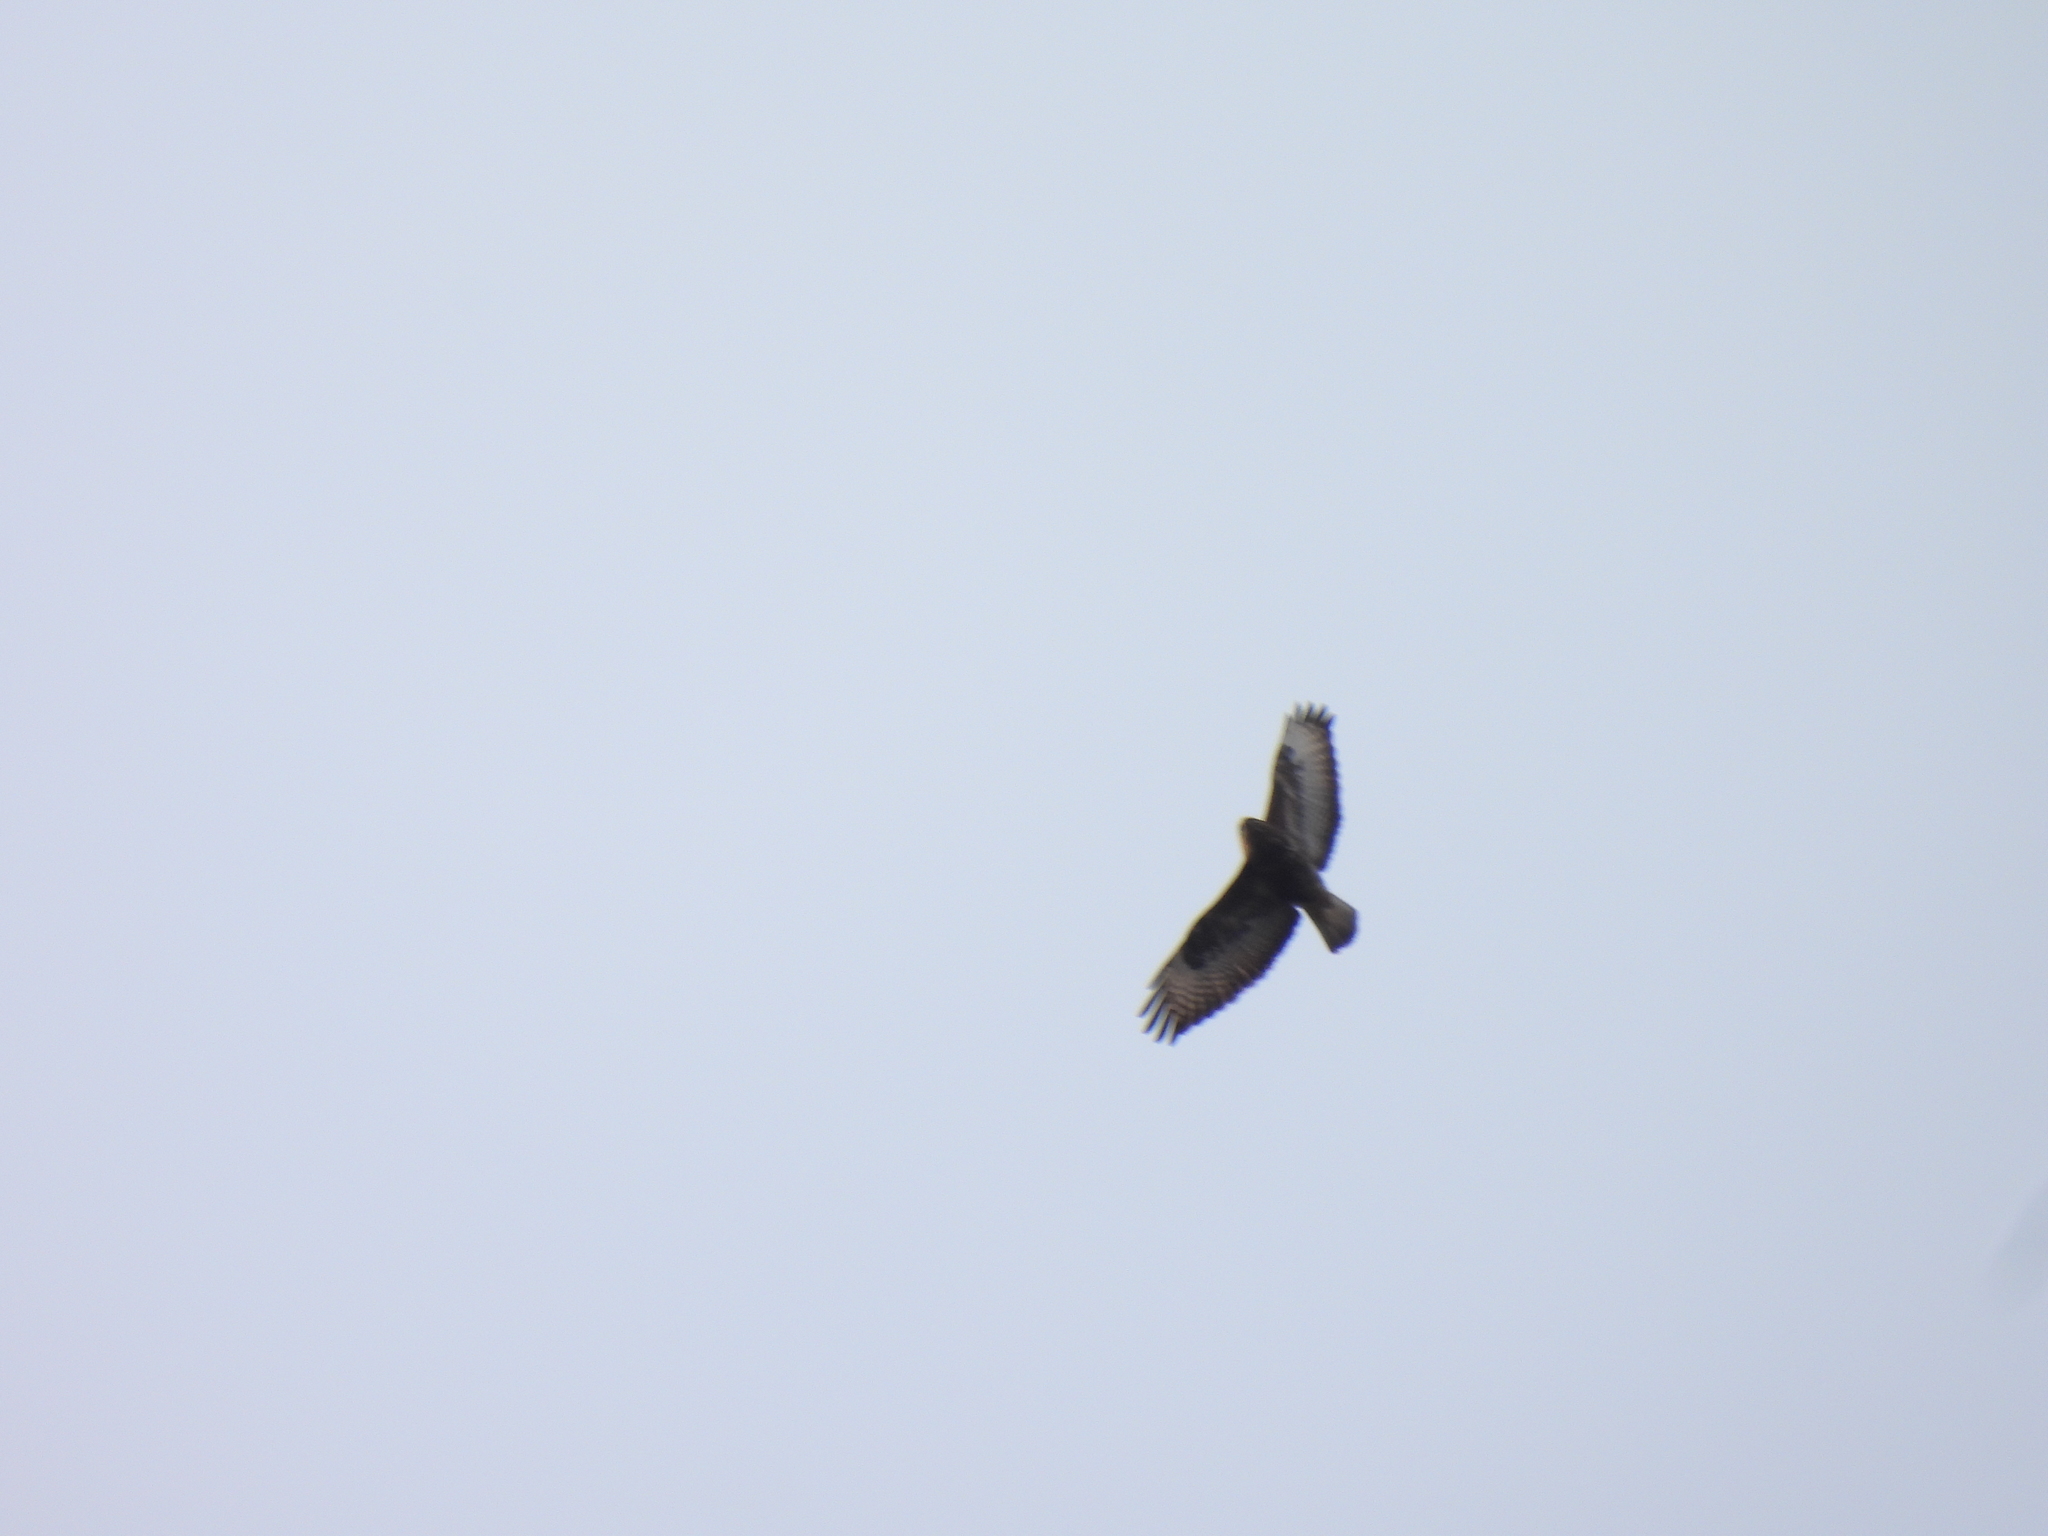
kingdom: Animalia
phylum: Chordata
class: Aves
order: Accipitriformes
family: Accipitridae
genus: Buteo
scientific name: Buteo buteo
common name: Common buzzard
